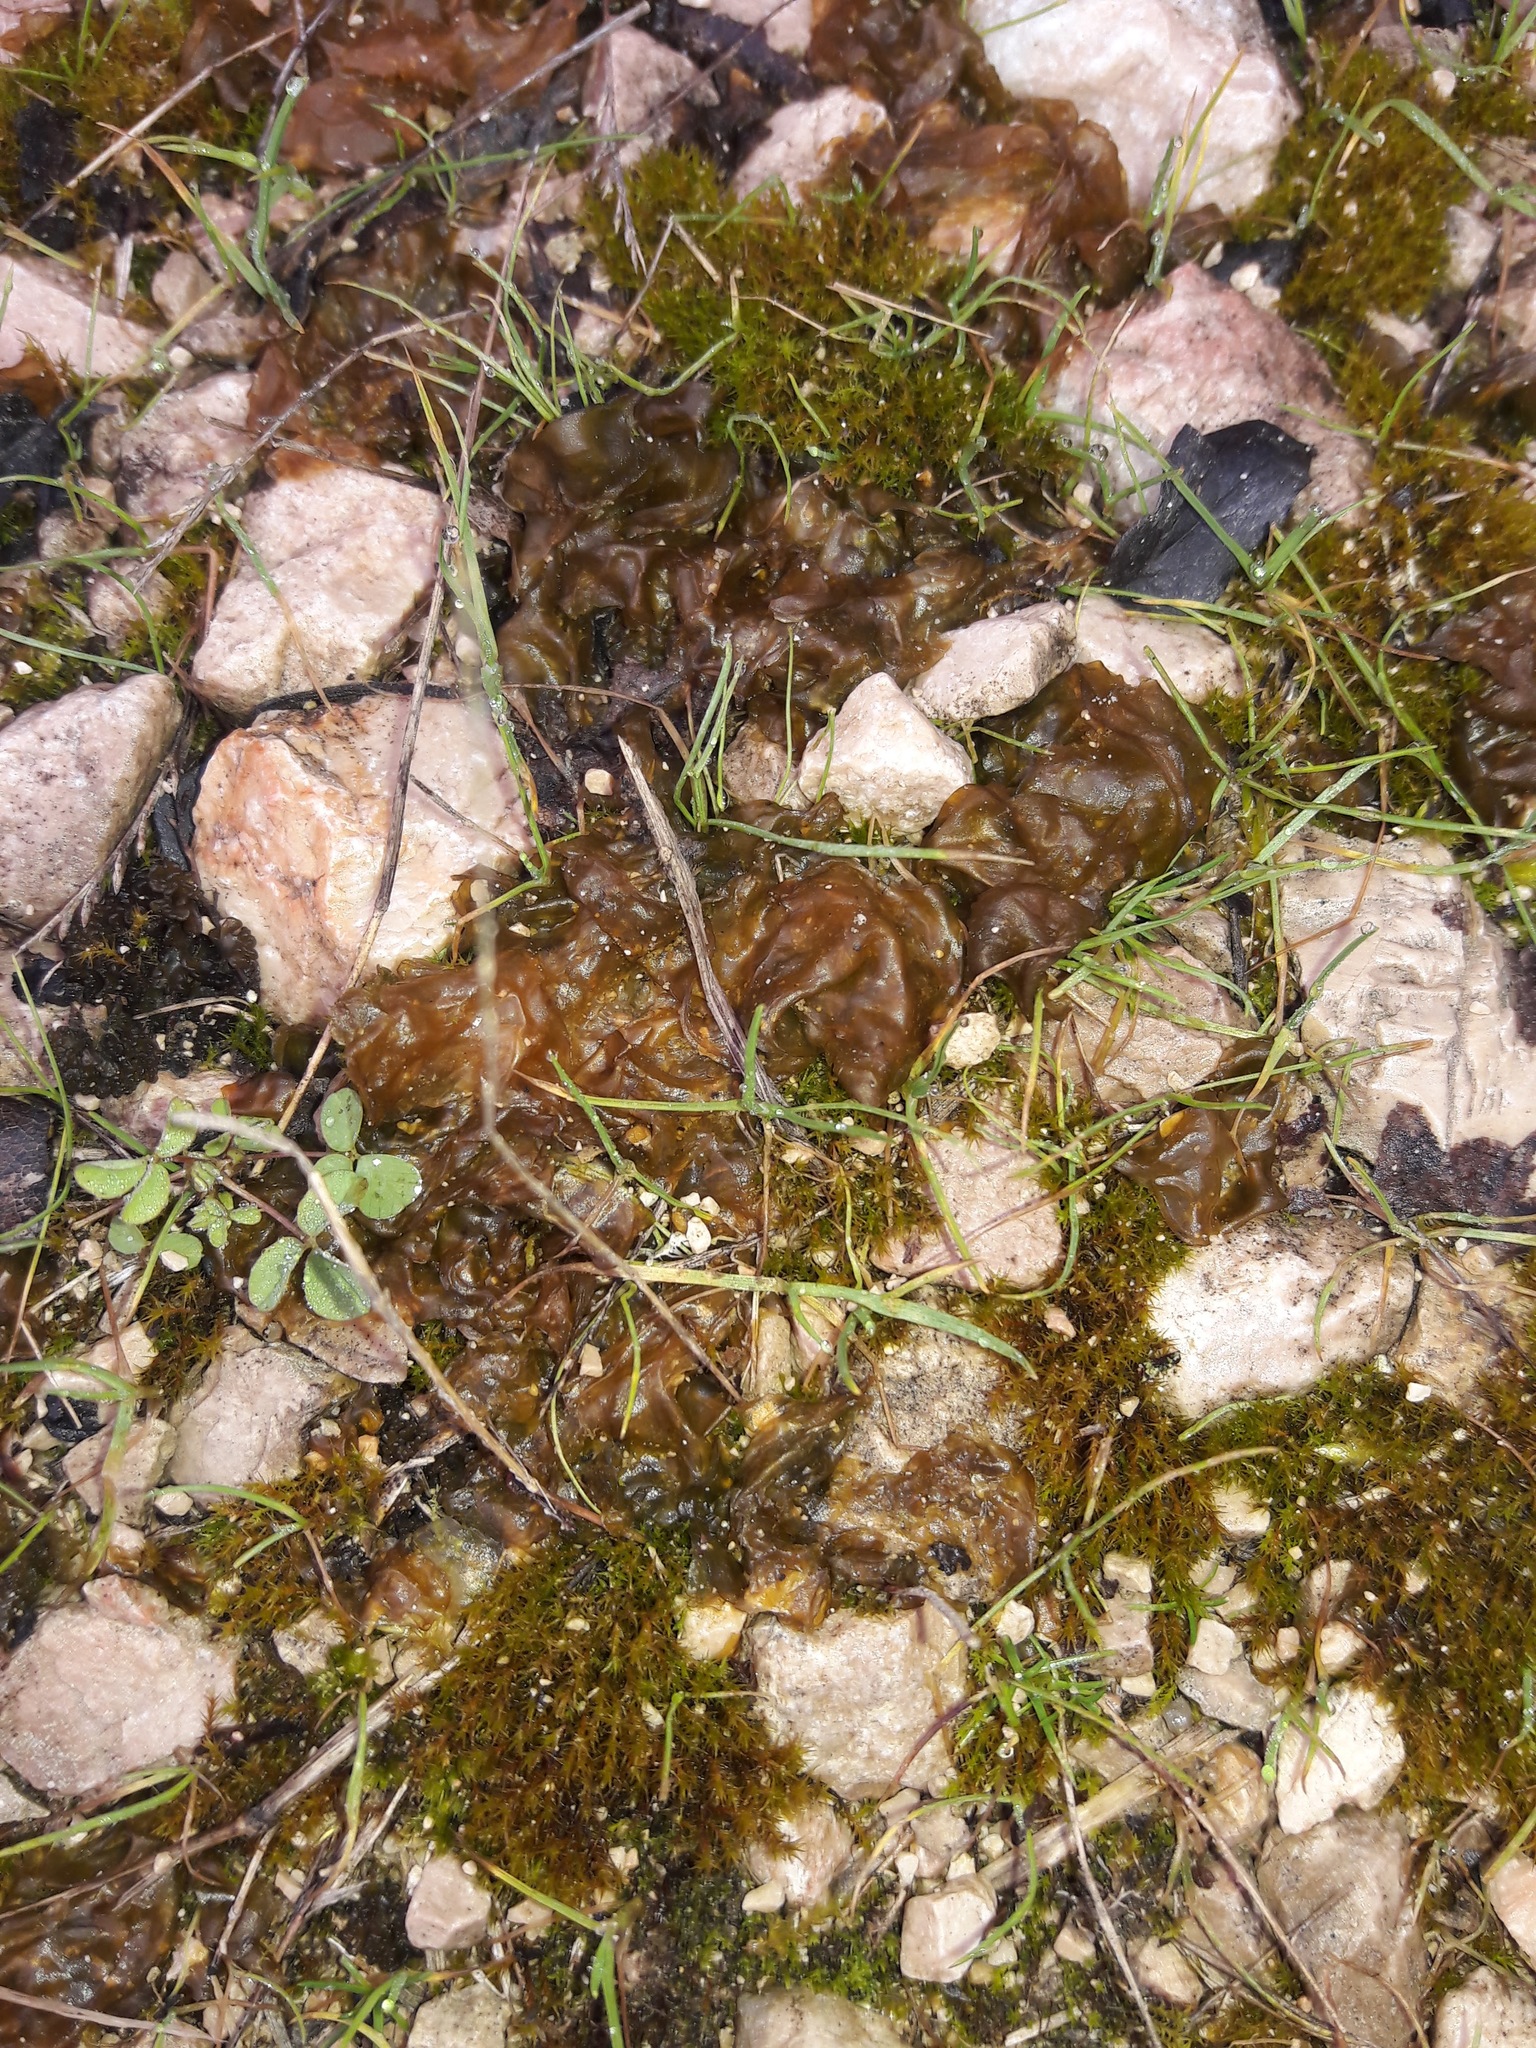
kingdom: Bacteria
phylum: Cyanobacteria
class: Cyanobacteriia
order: Cyanobacteriales
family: Nostocaceae
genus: Nostoc
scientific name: Nostoc commune
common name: Star jelly
